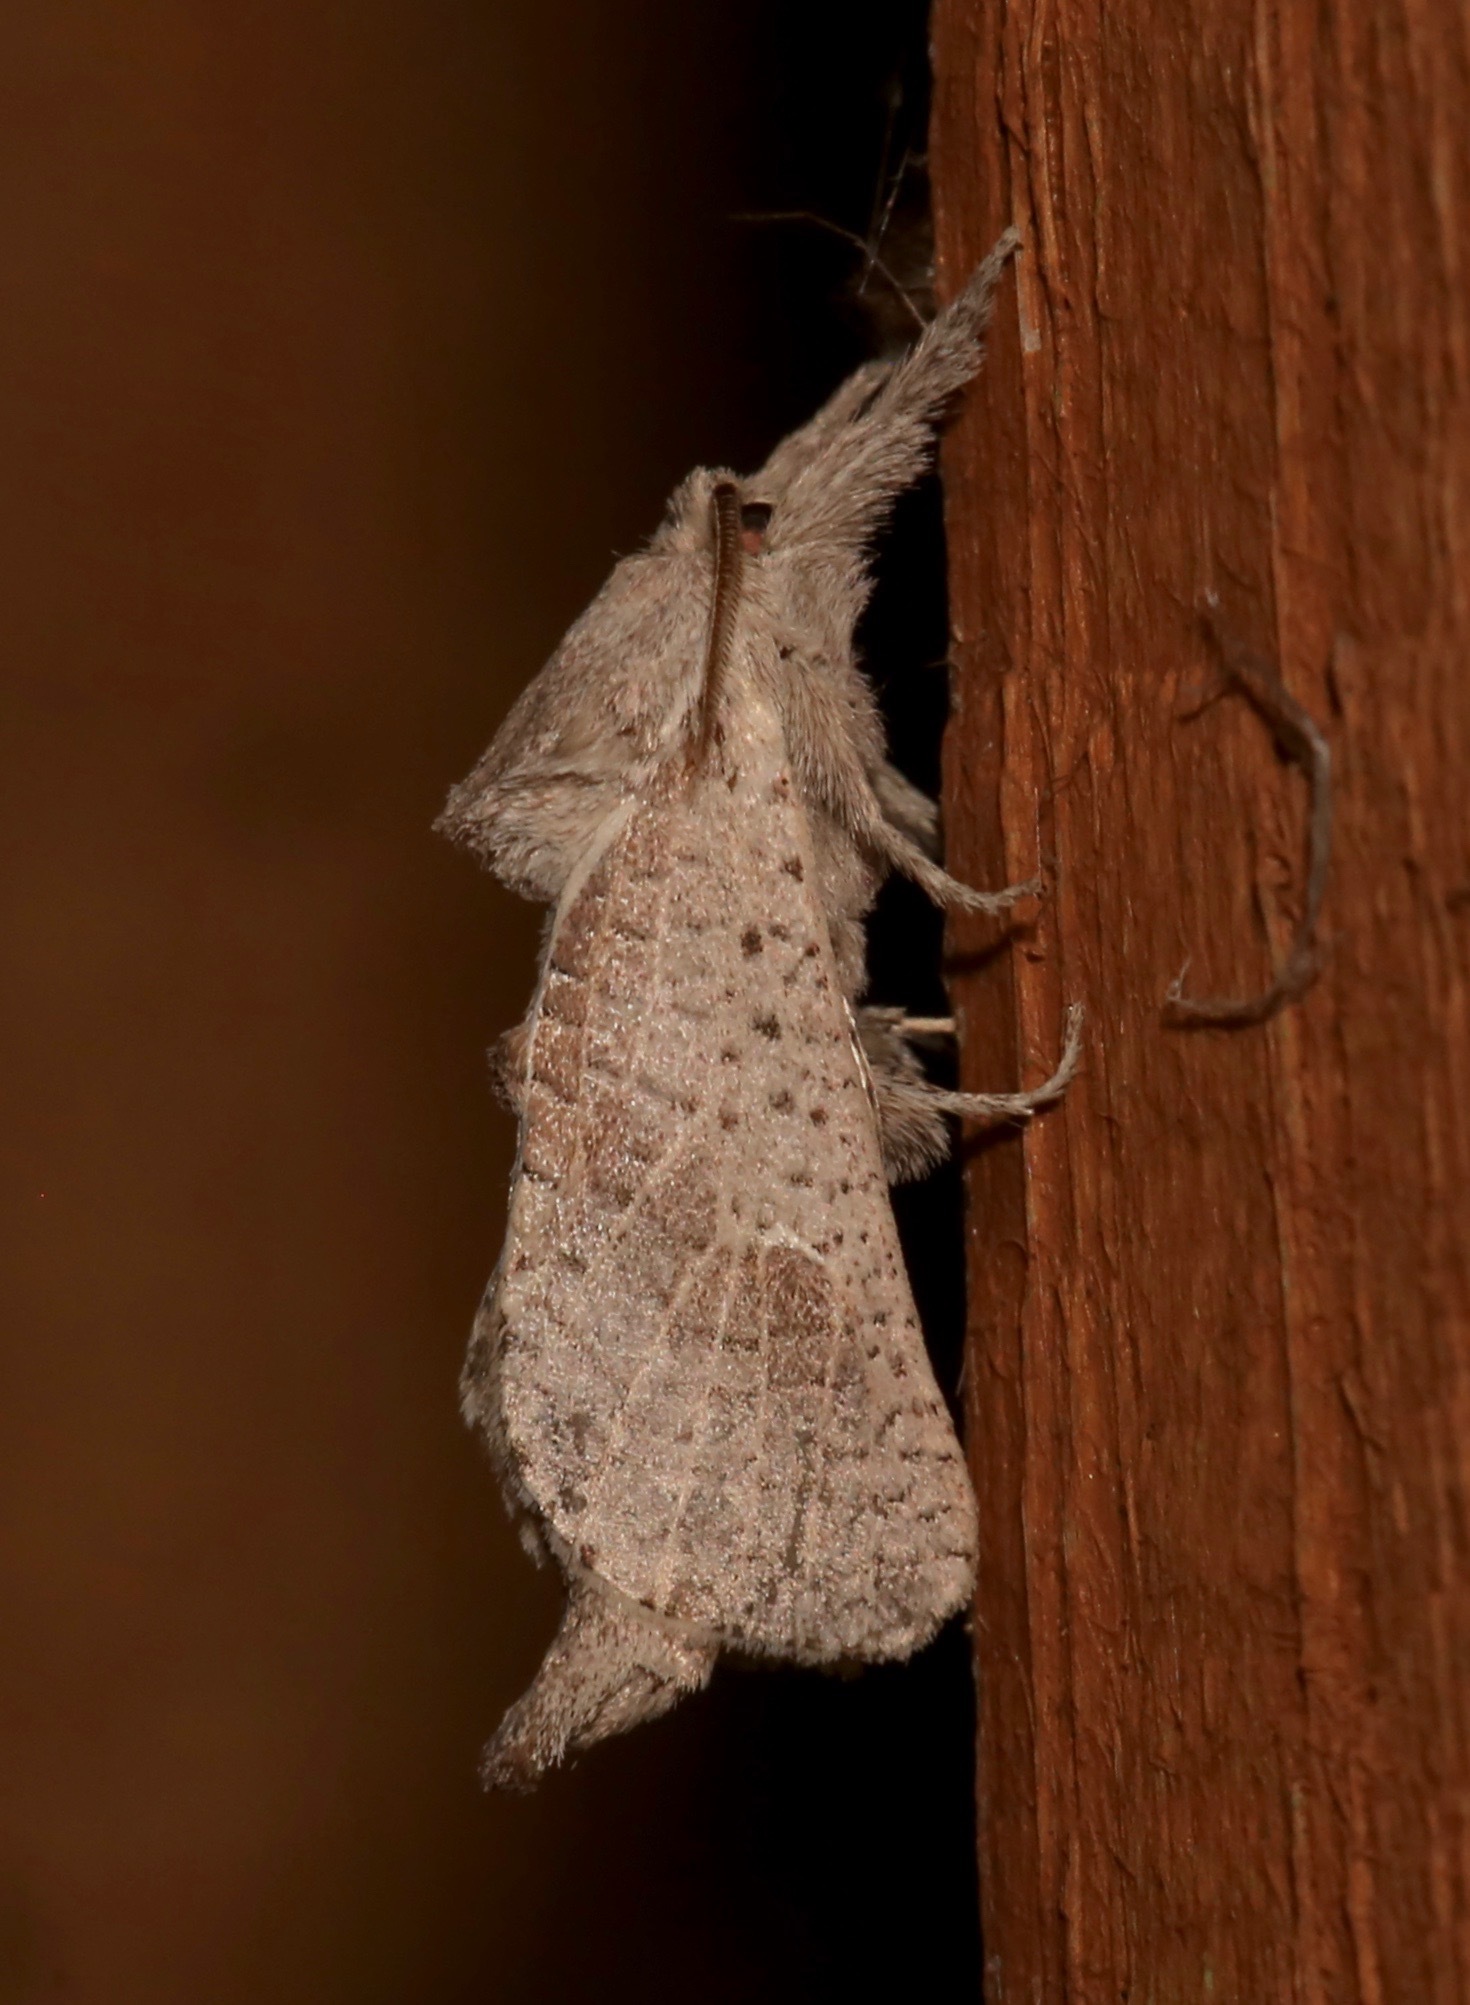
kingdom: Animalia
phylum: Arthropoda
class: Insecta
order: Lepidoptera
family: Cossidae
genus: Givira
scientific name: Givira anna
